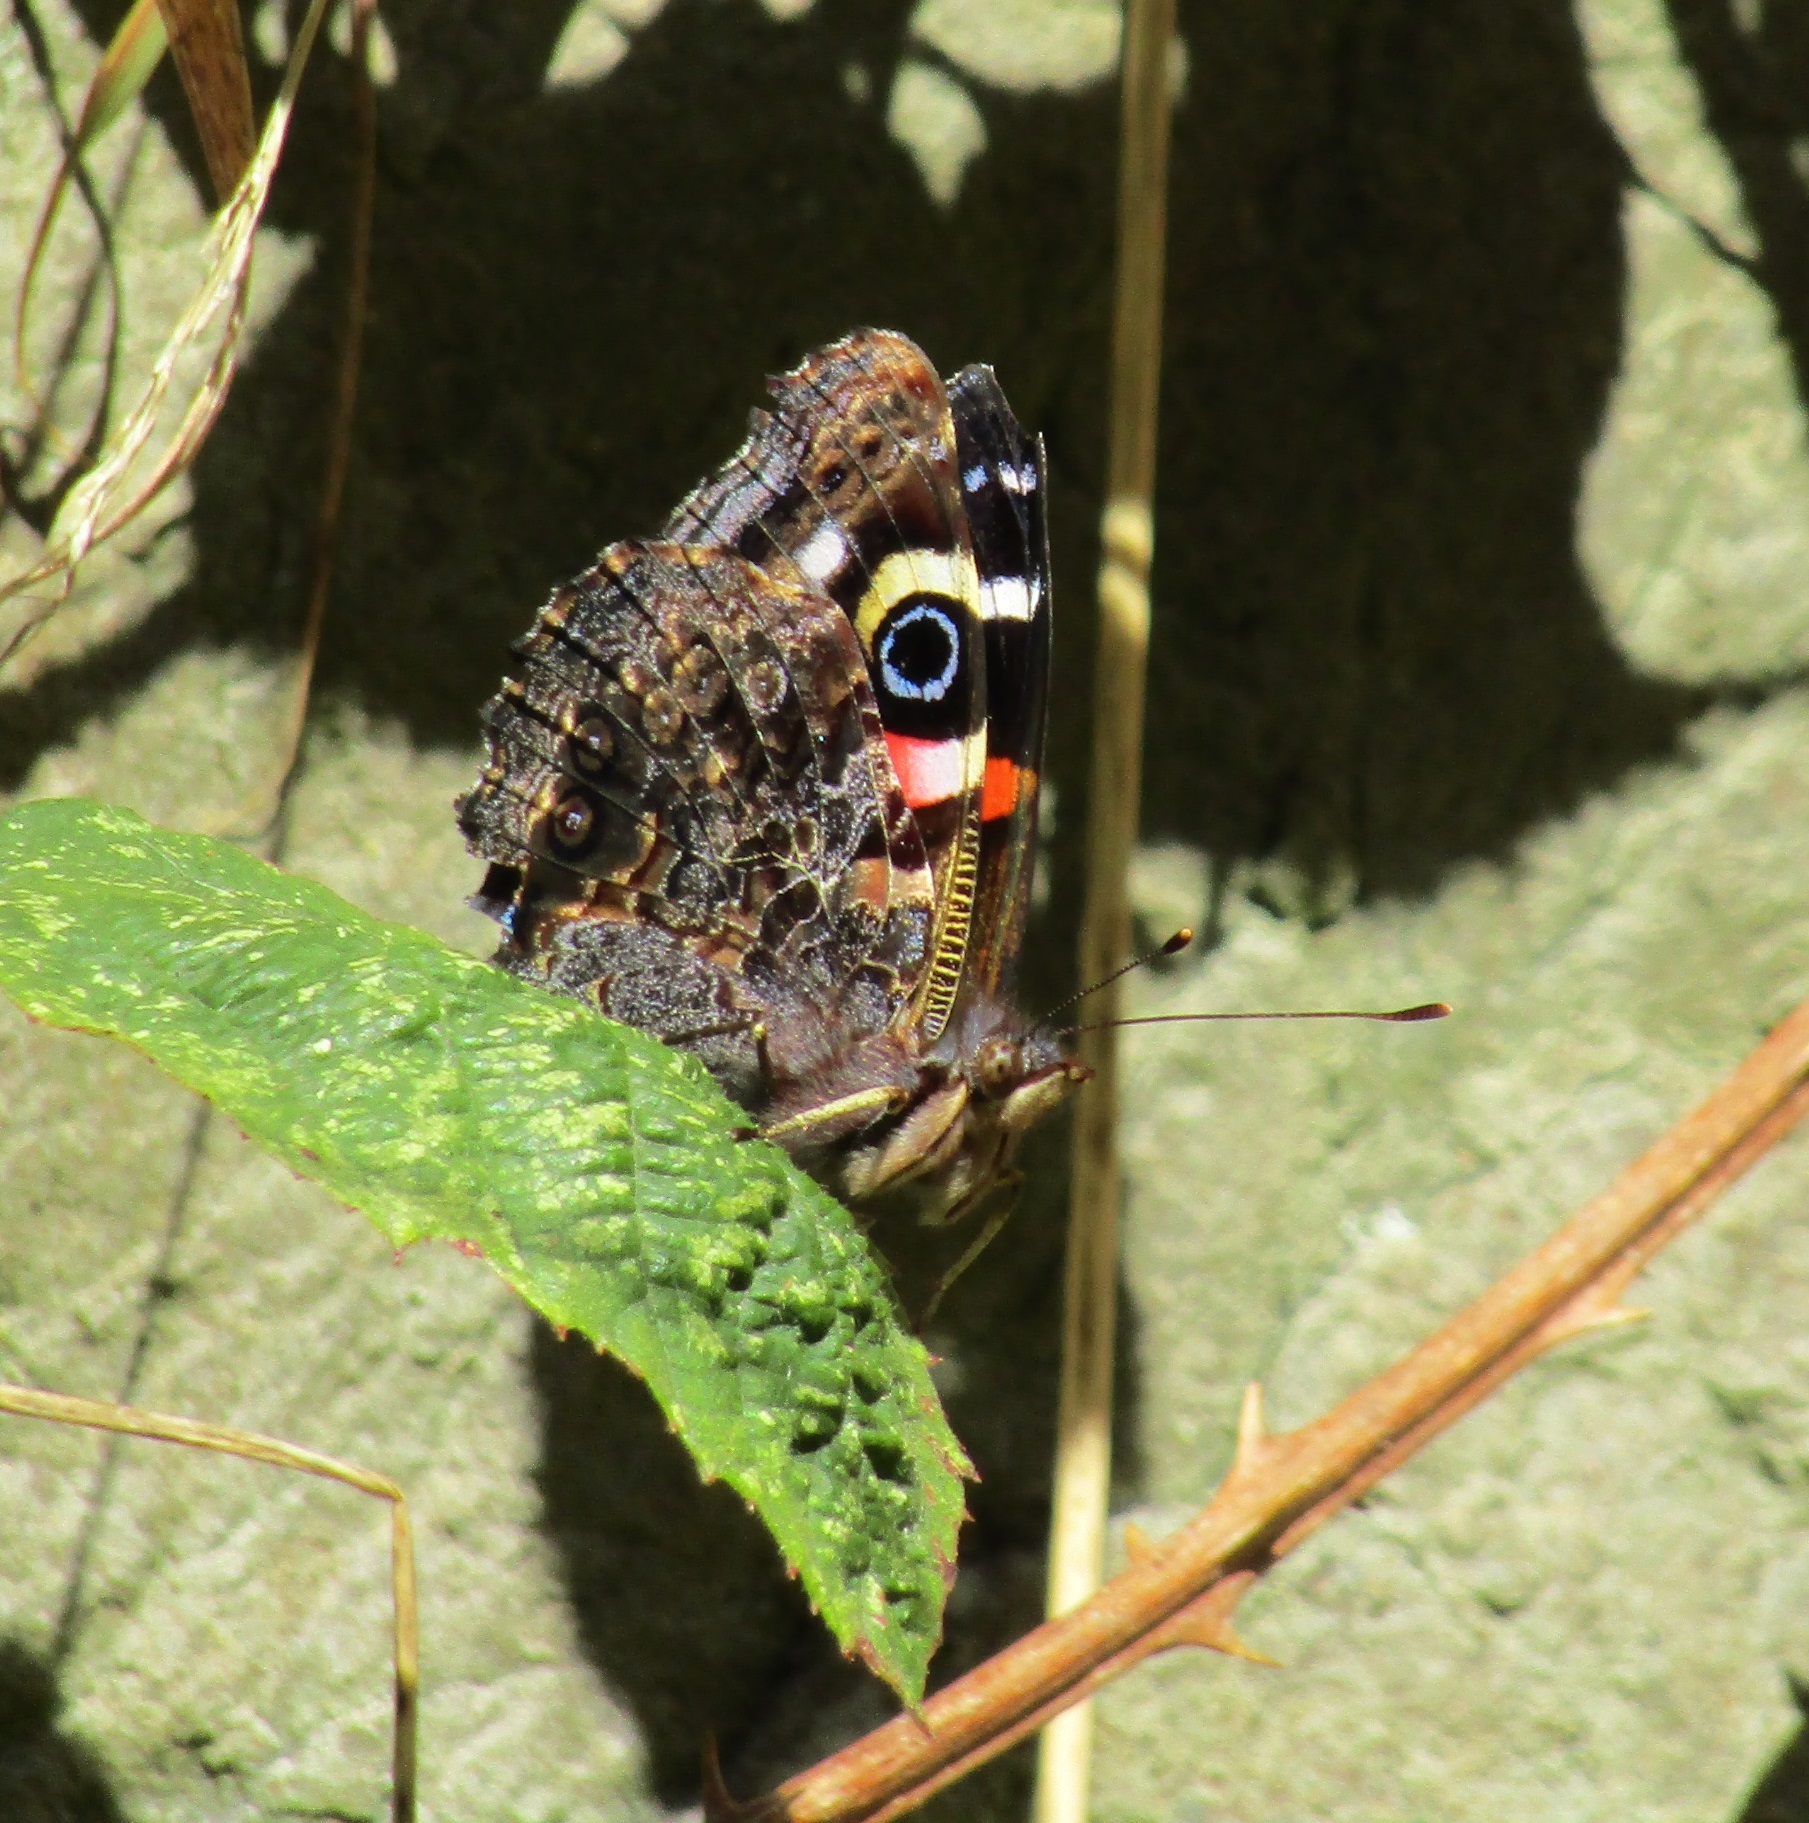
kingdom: Animalia
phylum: Arthropoda
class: Insecta
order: Lepidoptera
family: Nymphalidae
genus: Vanessa
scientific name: Vanessa gonerilla
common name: New zealand red admiral
